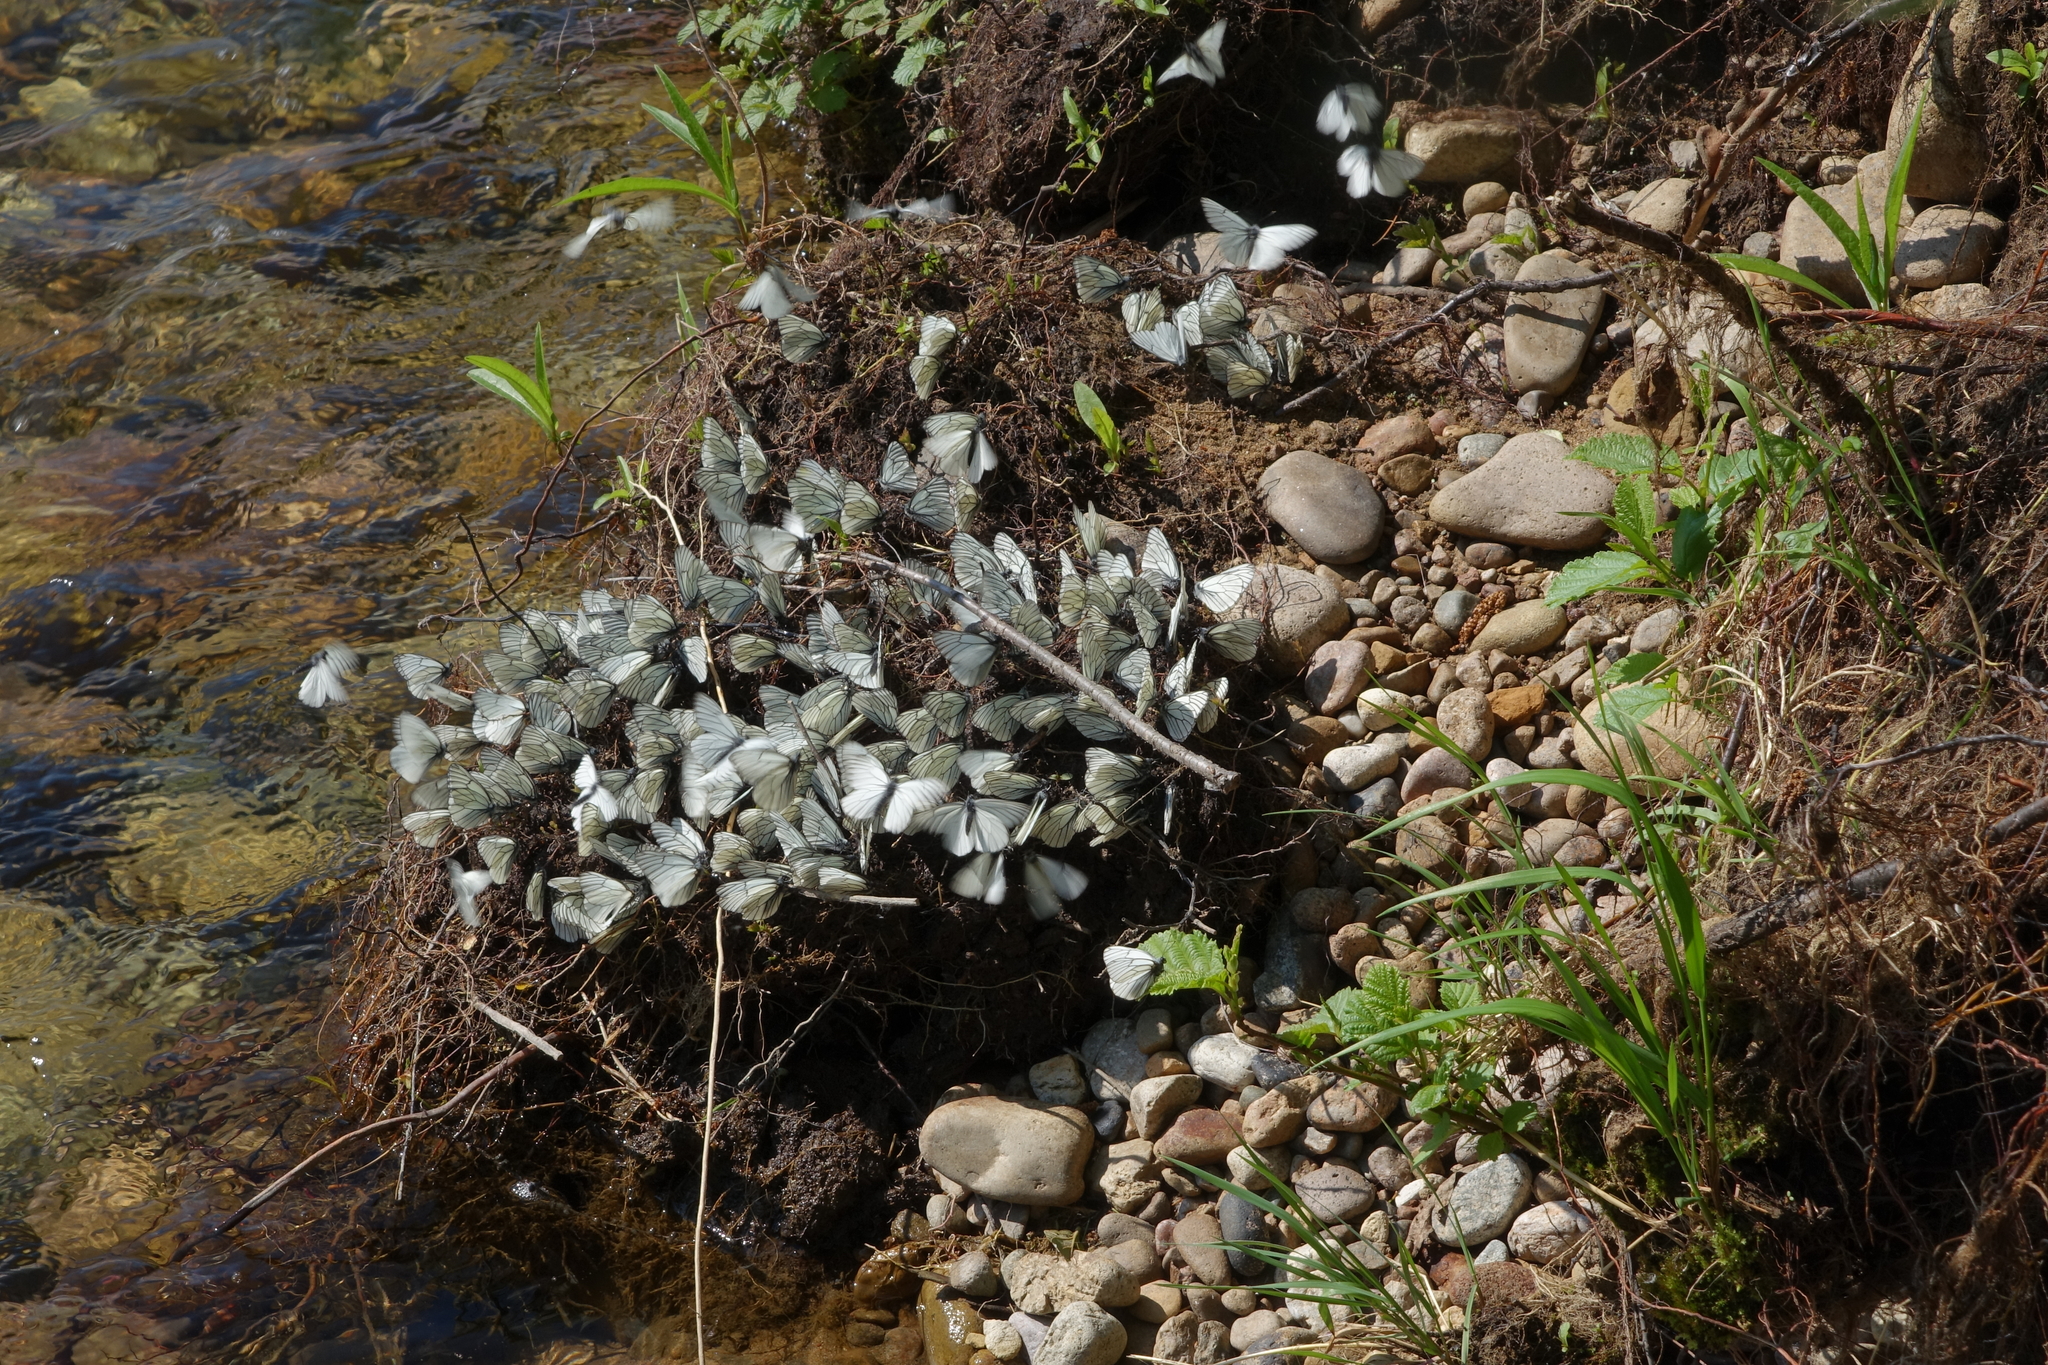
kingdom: Animalia
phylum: Arthropoda
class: Insecta
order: Lepidoptera
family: Pieridae
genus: Aporia
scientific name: Aporia crataegi
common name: Black-veined white
